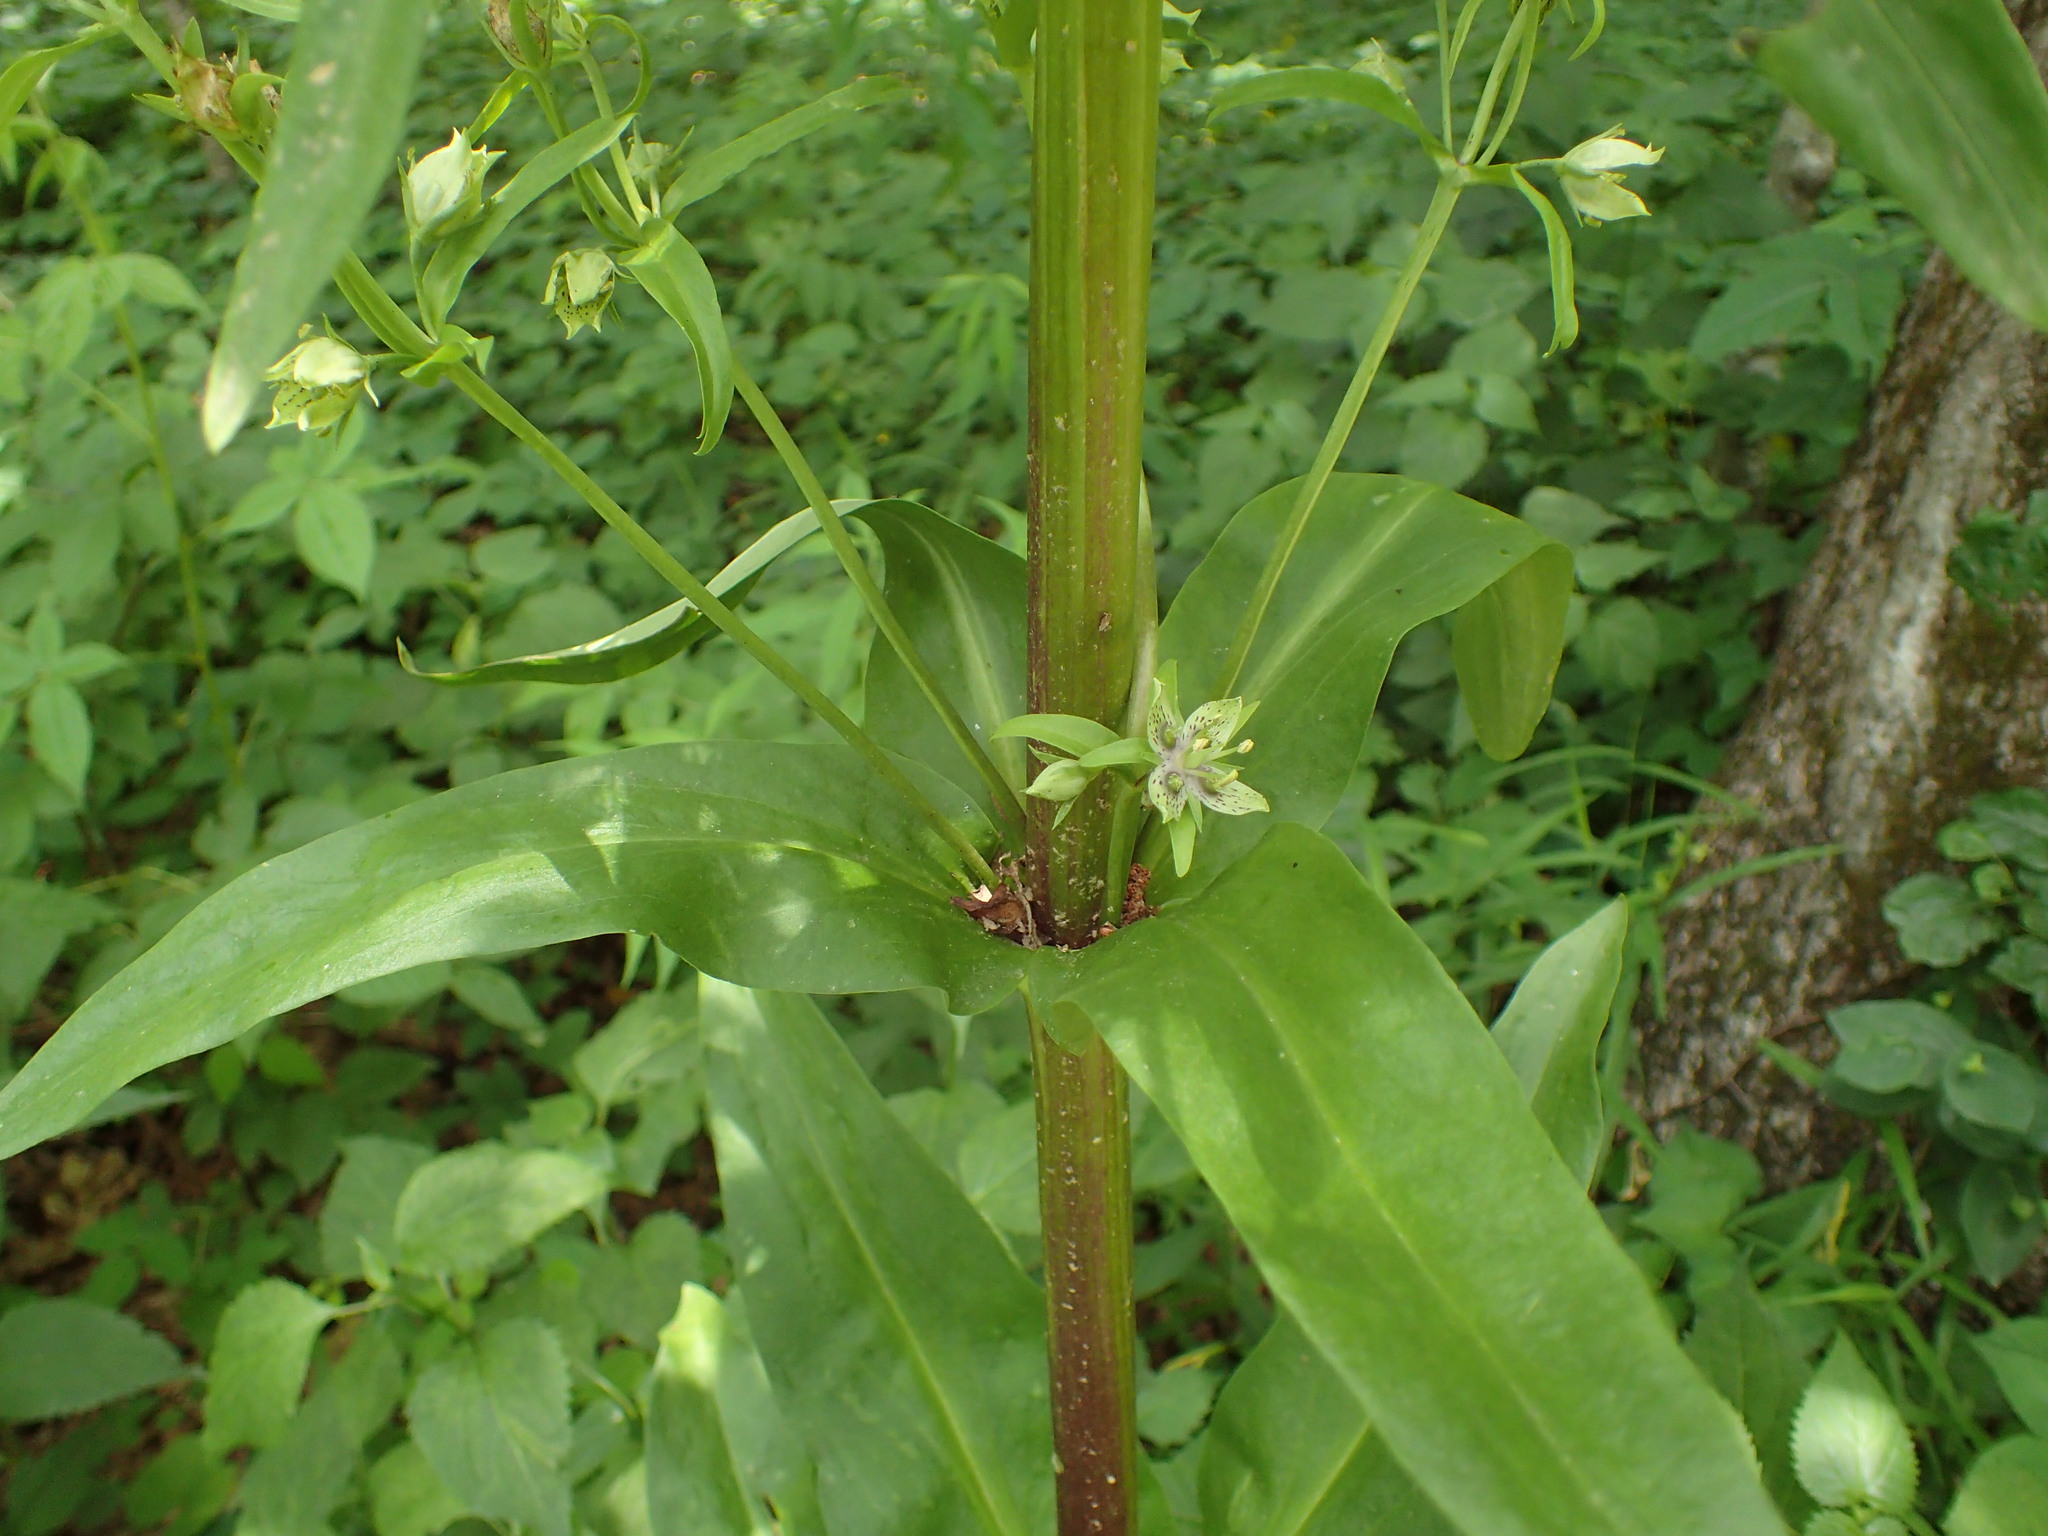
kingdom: Plantae
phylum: Tracheophyta
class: Magnoliopsida
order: Gentianales
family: Gentianaceae
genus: Frasera
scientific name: Frasera caroliniensis
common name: American columbo
